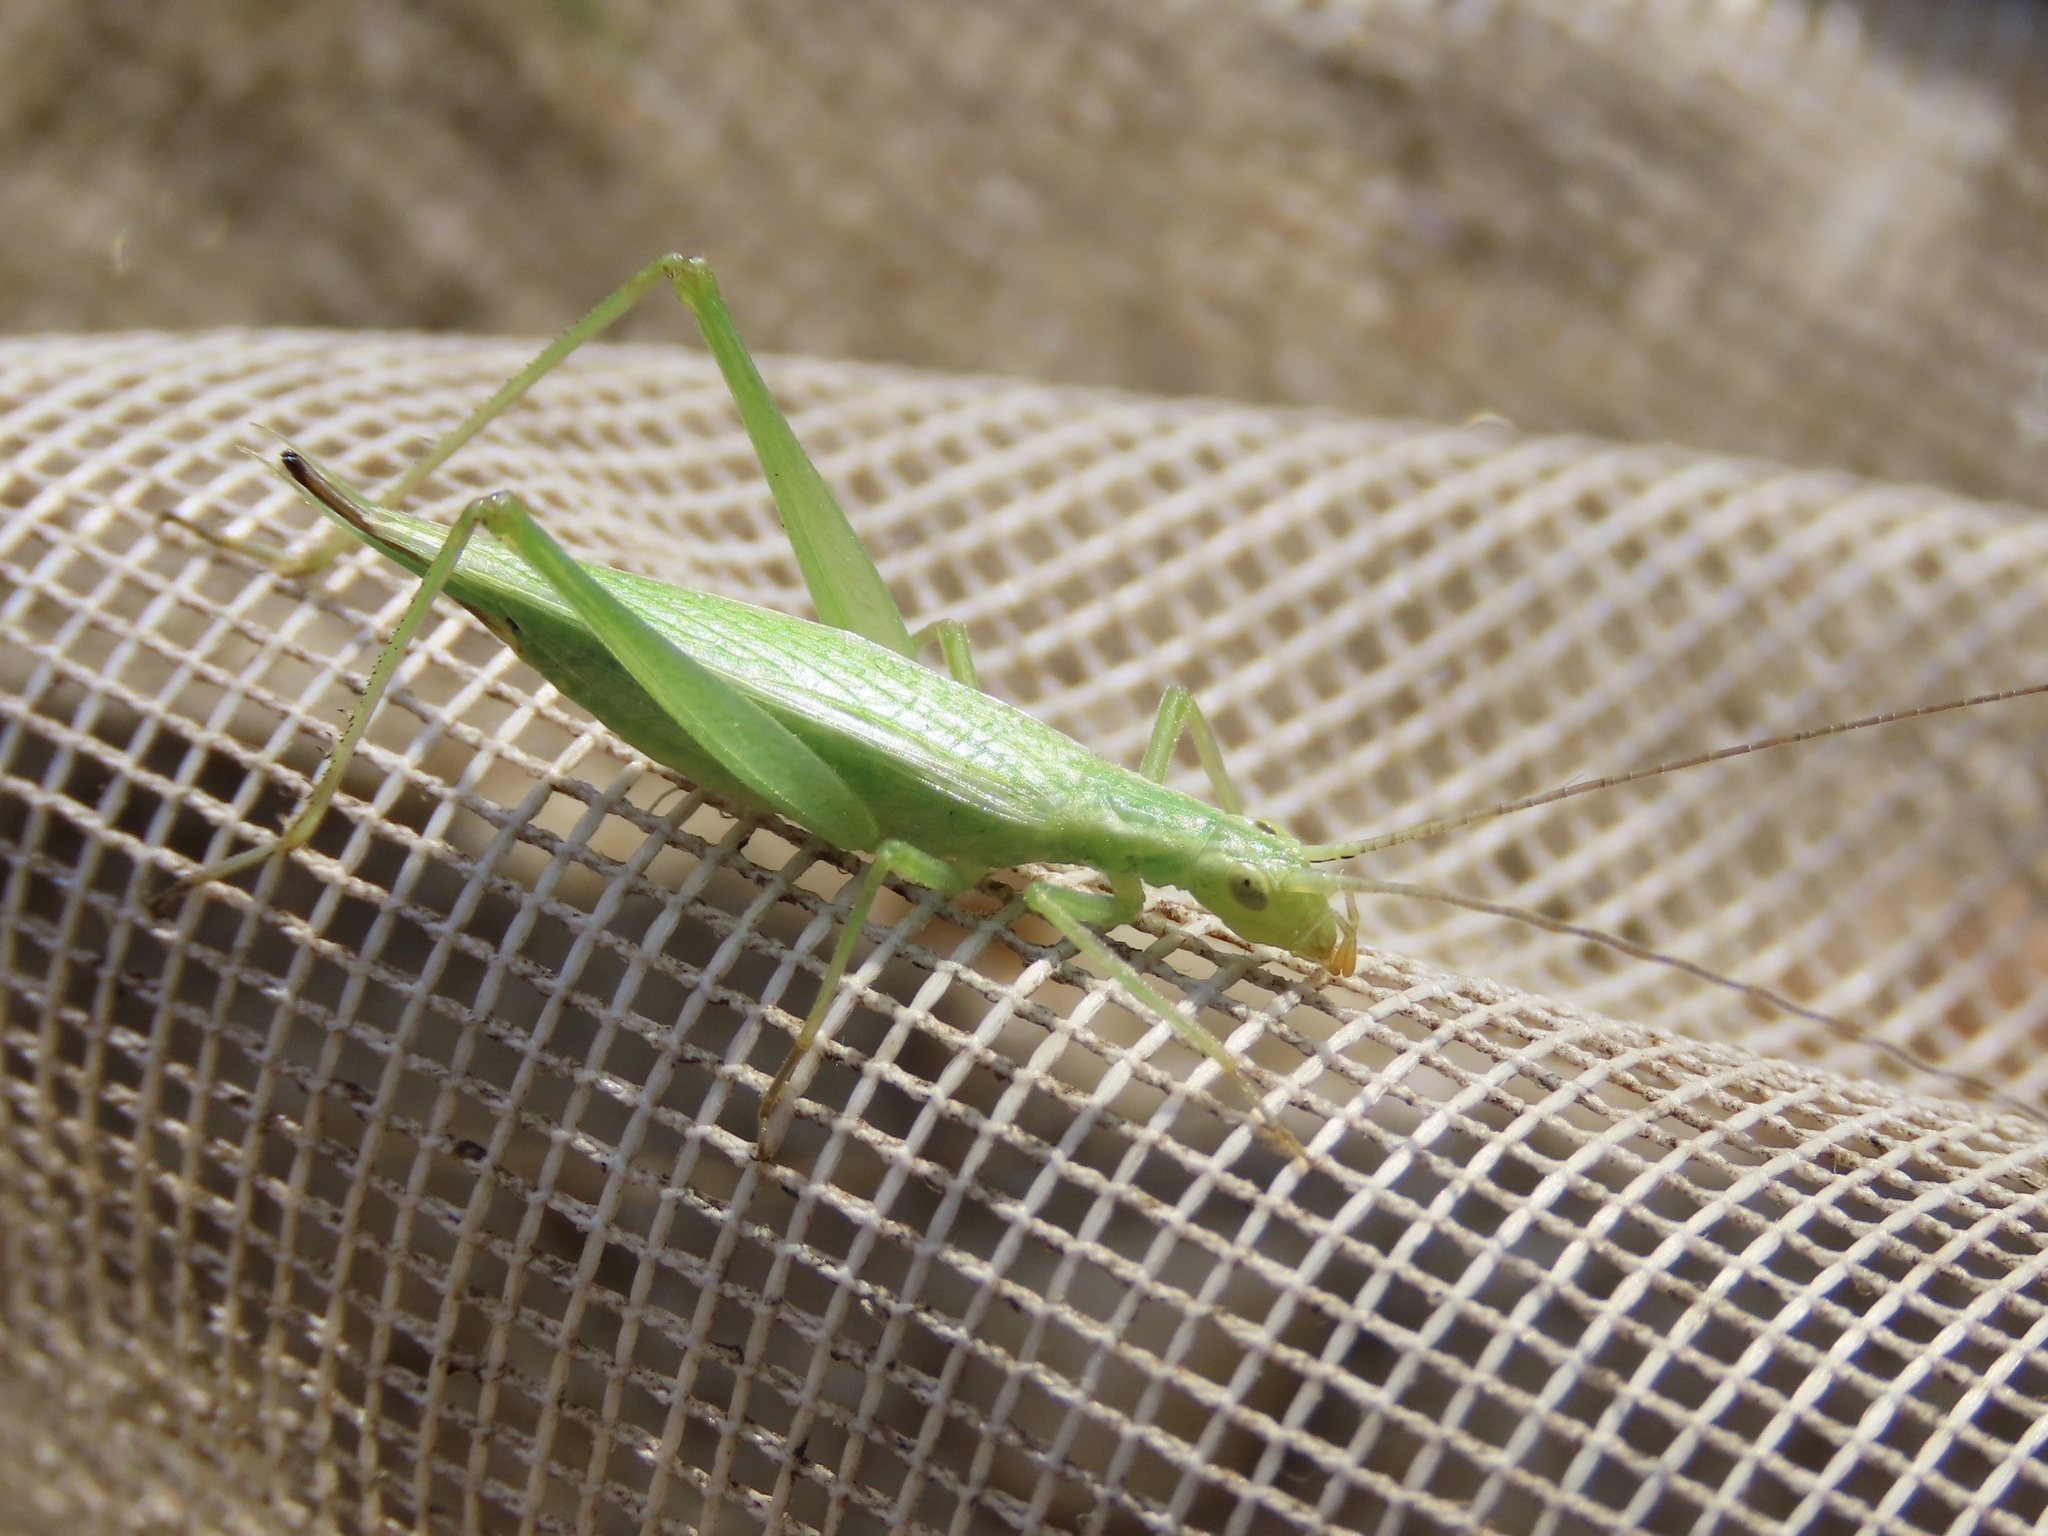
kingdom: Animalia
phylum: Arthropoda
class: Insecta
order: Orthoptera
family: Gryllidae
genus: Oecanthus
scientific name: Oecanthus quadripunctatus
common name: Four-spotted tree cricket
